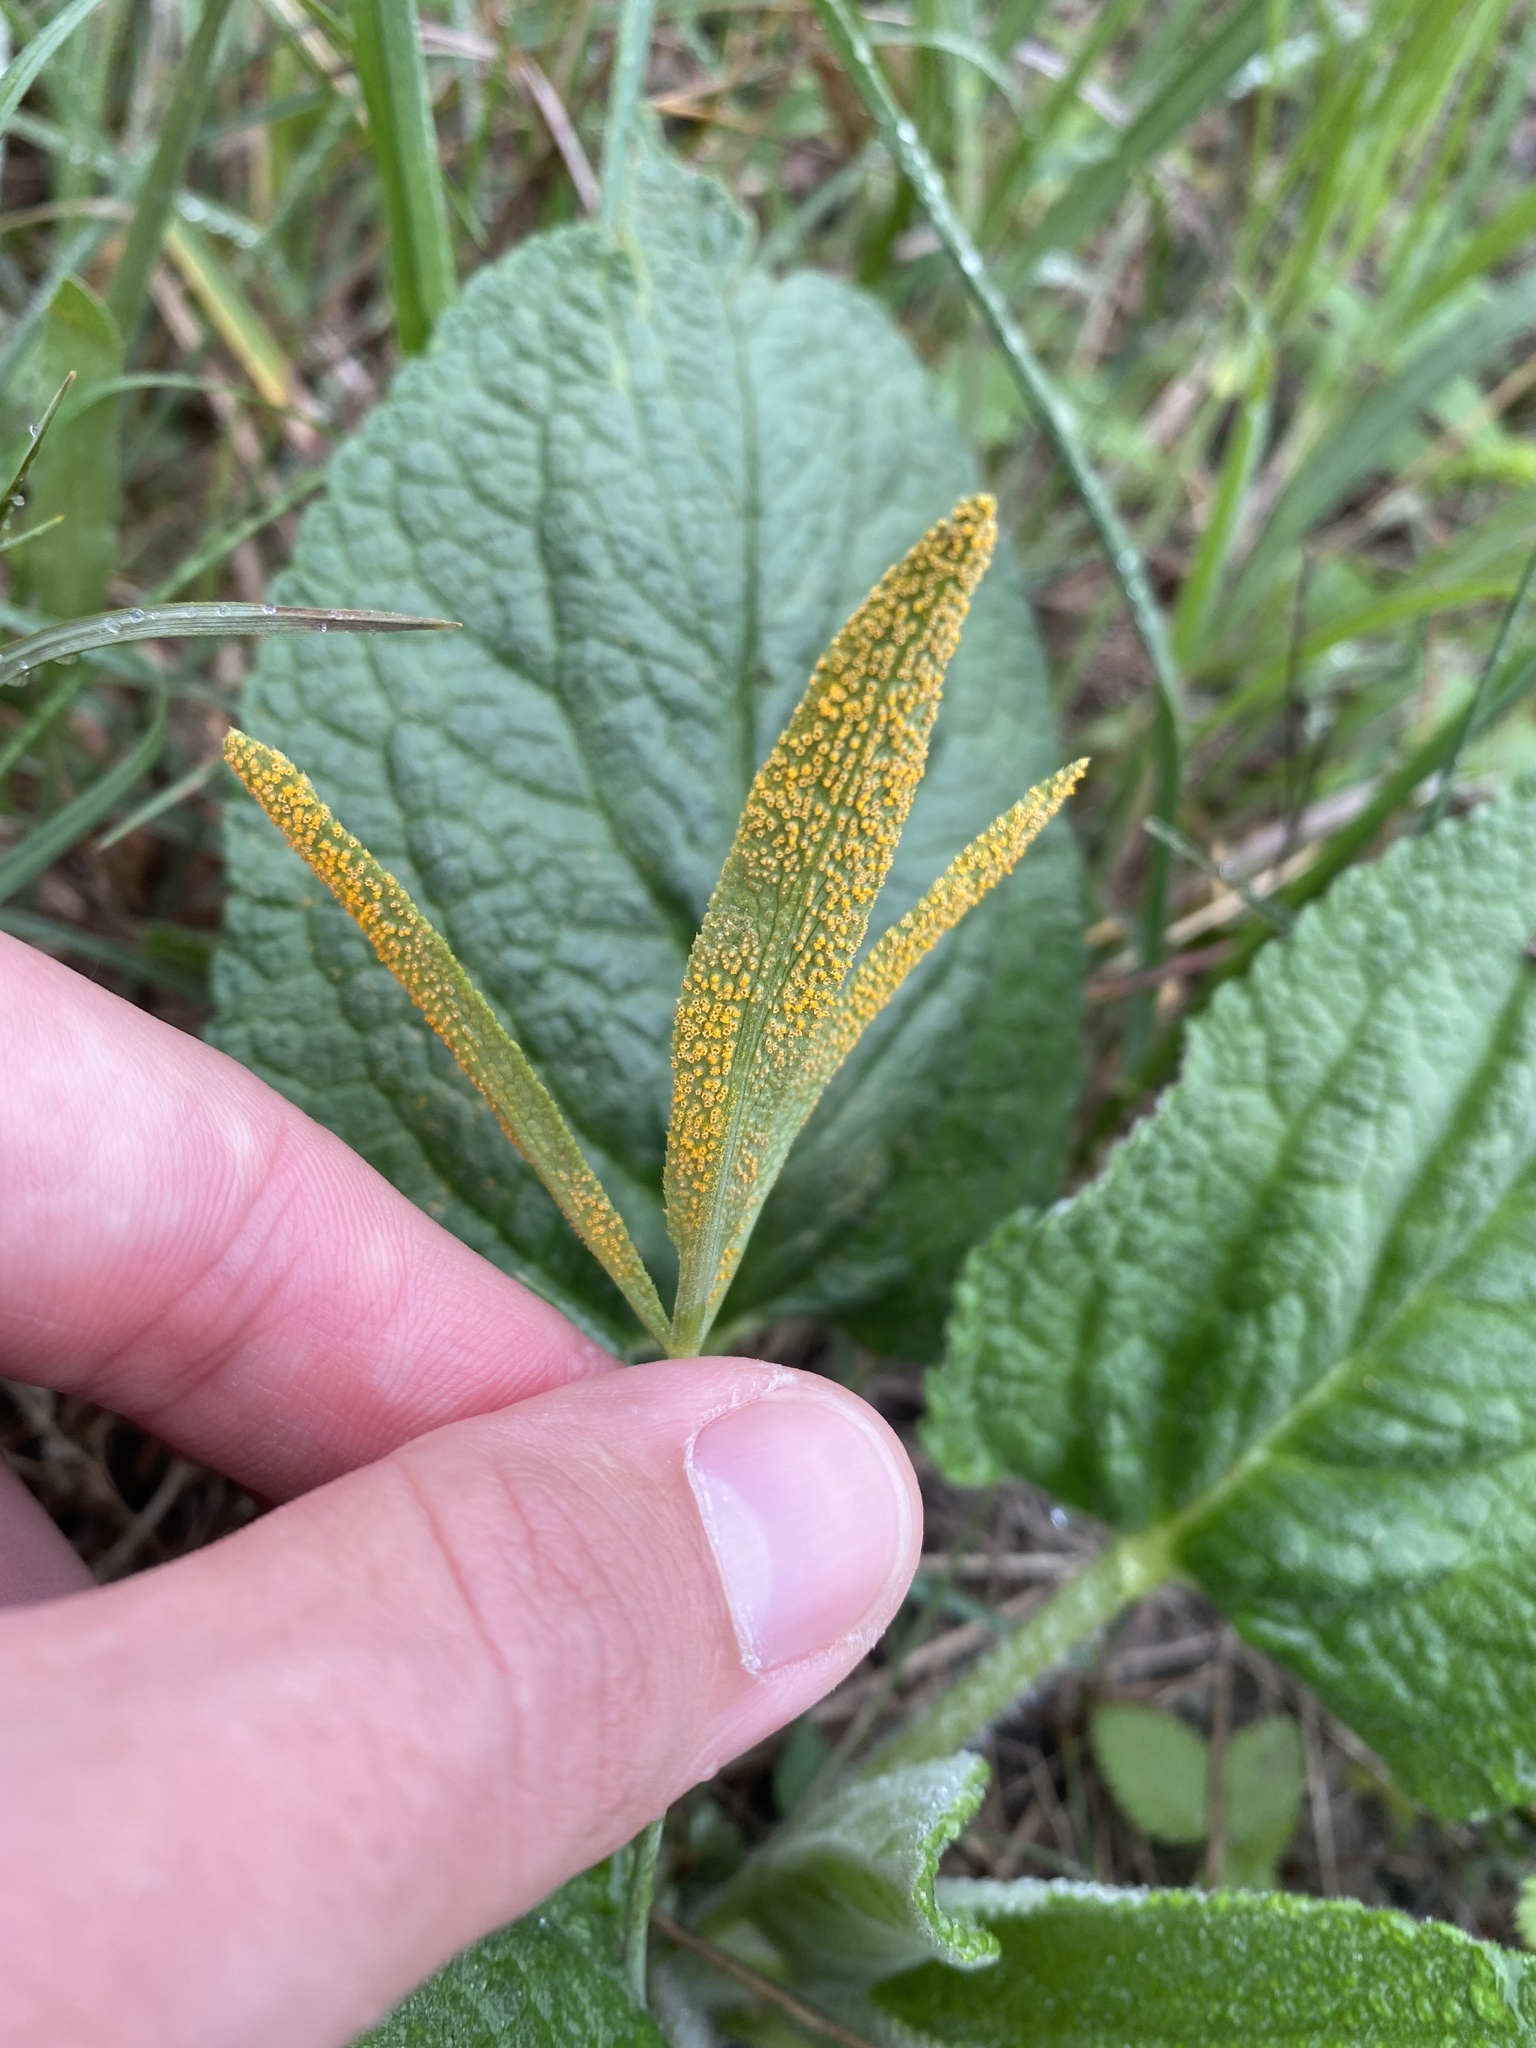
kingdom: Fungi
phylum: Basidiomycota
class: Pucciniomycetes
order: Pucciniales
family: Pucciniaceae
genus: Puccinia
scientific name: Puccinia sii-falcariae
